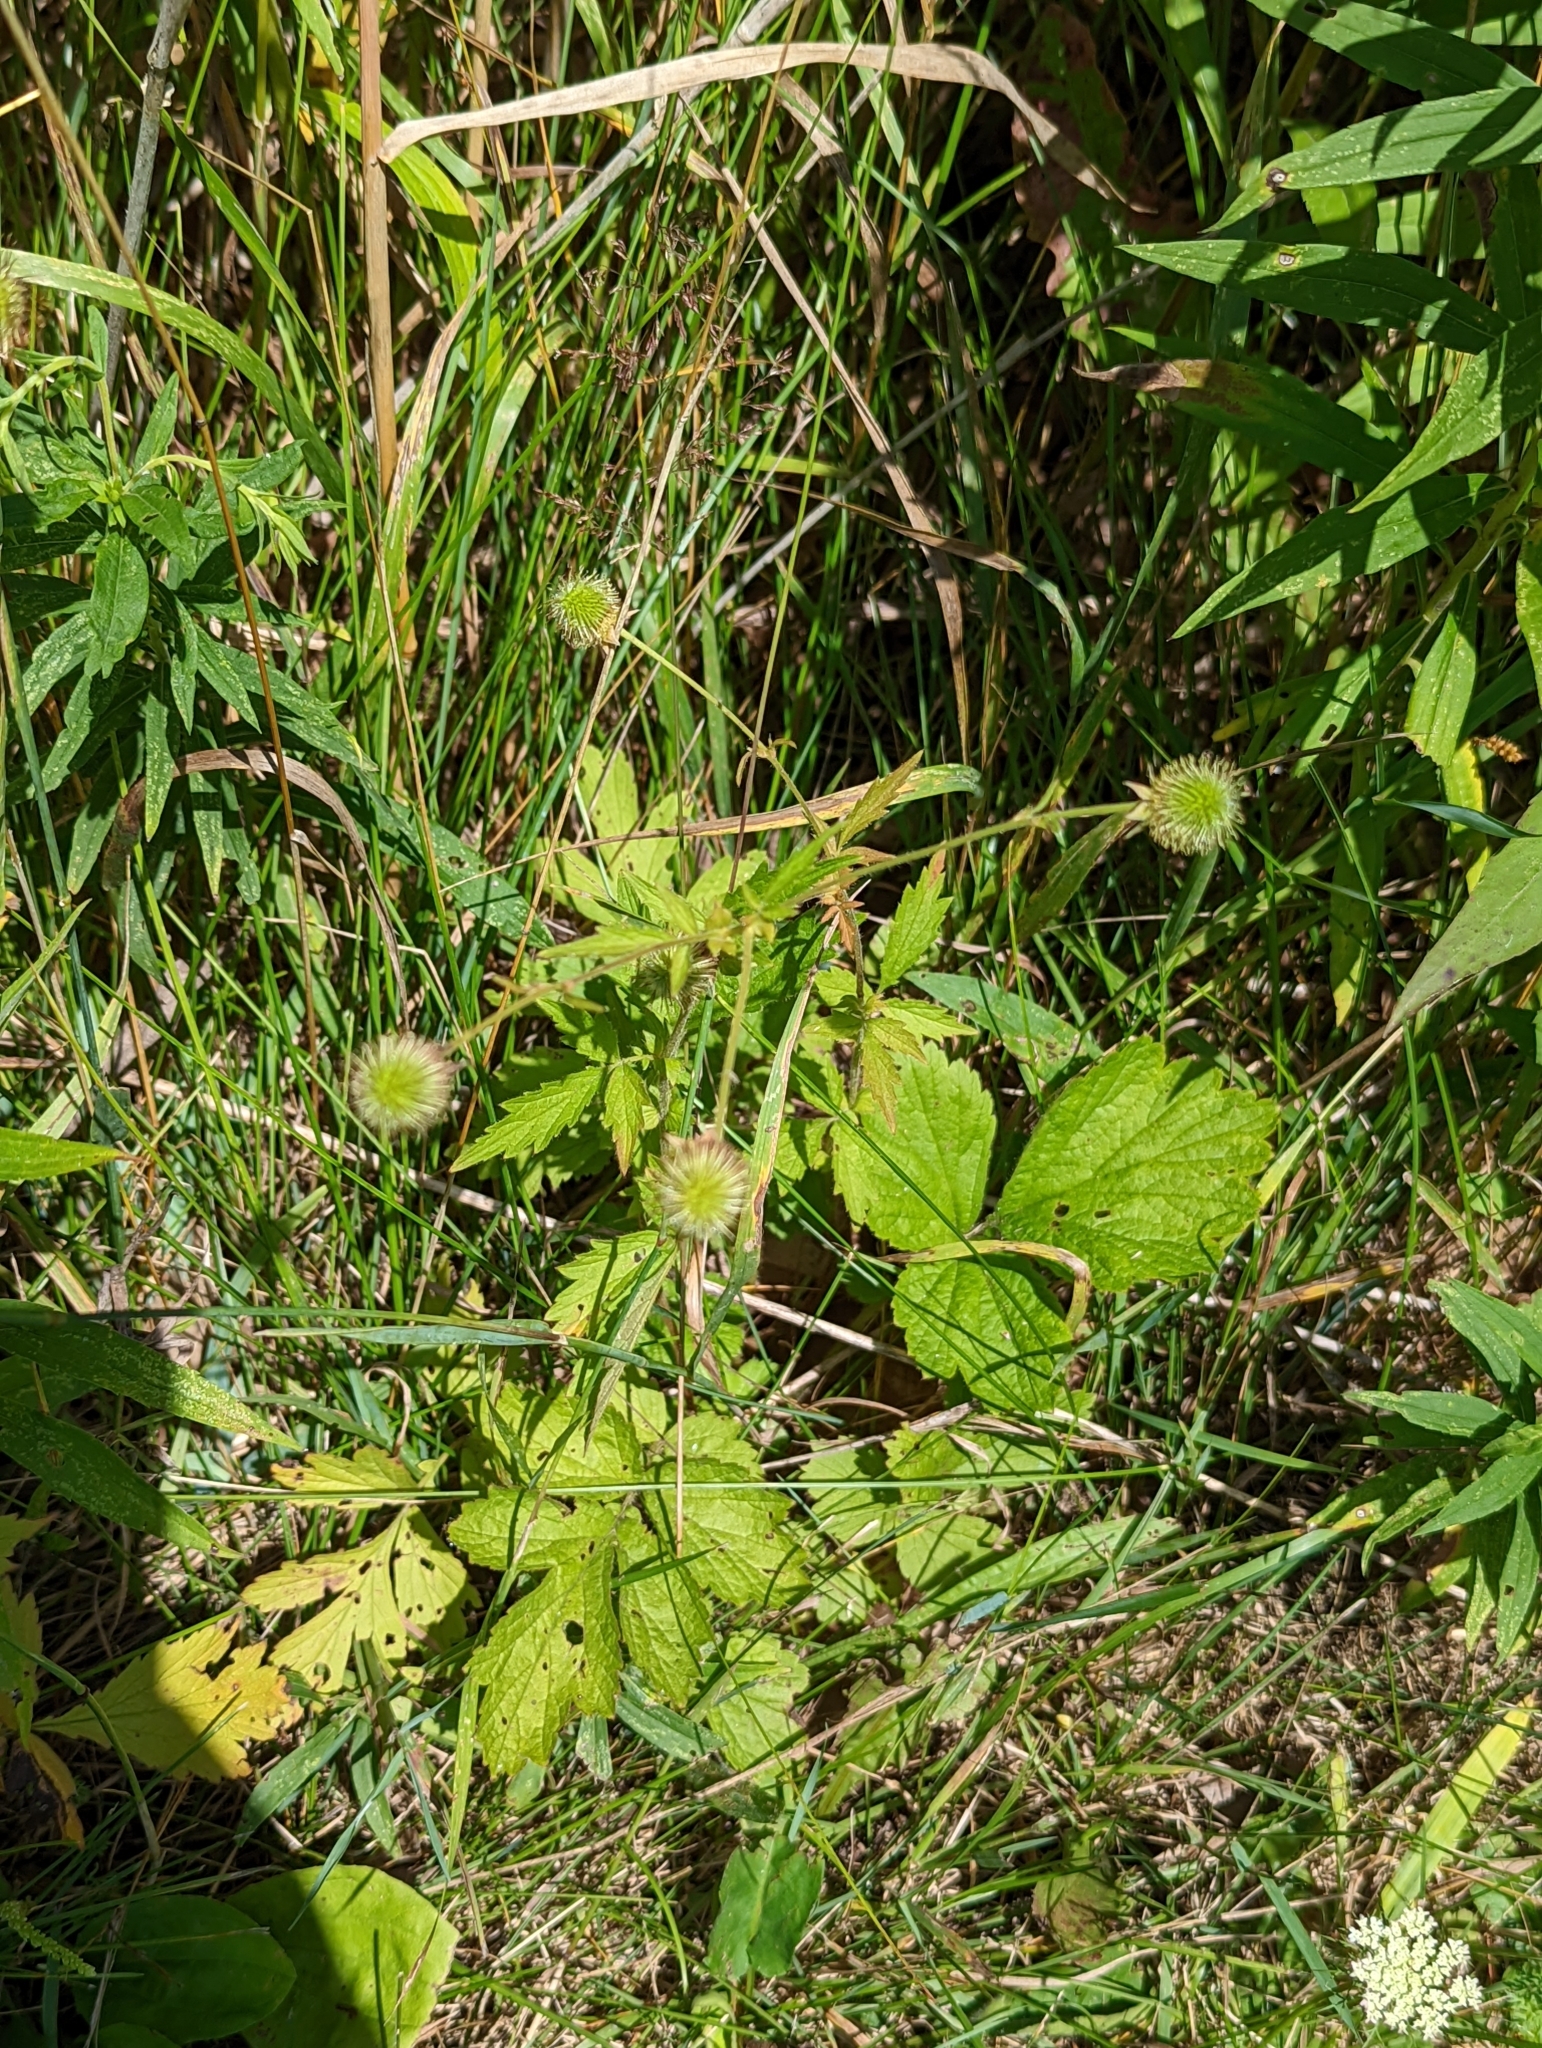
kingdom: Plantae
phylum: Tracheophyta
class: Magnoliopsida
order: Rosales
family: Rosaceae
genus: Geum
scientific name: Geum aleppicum
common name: Yellow avens
